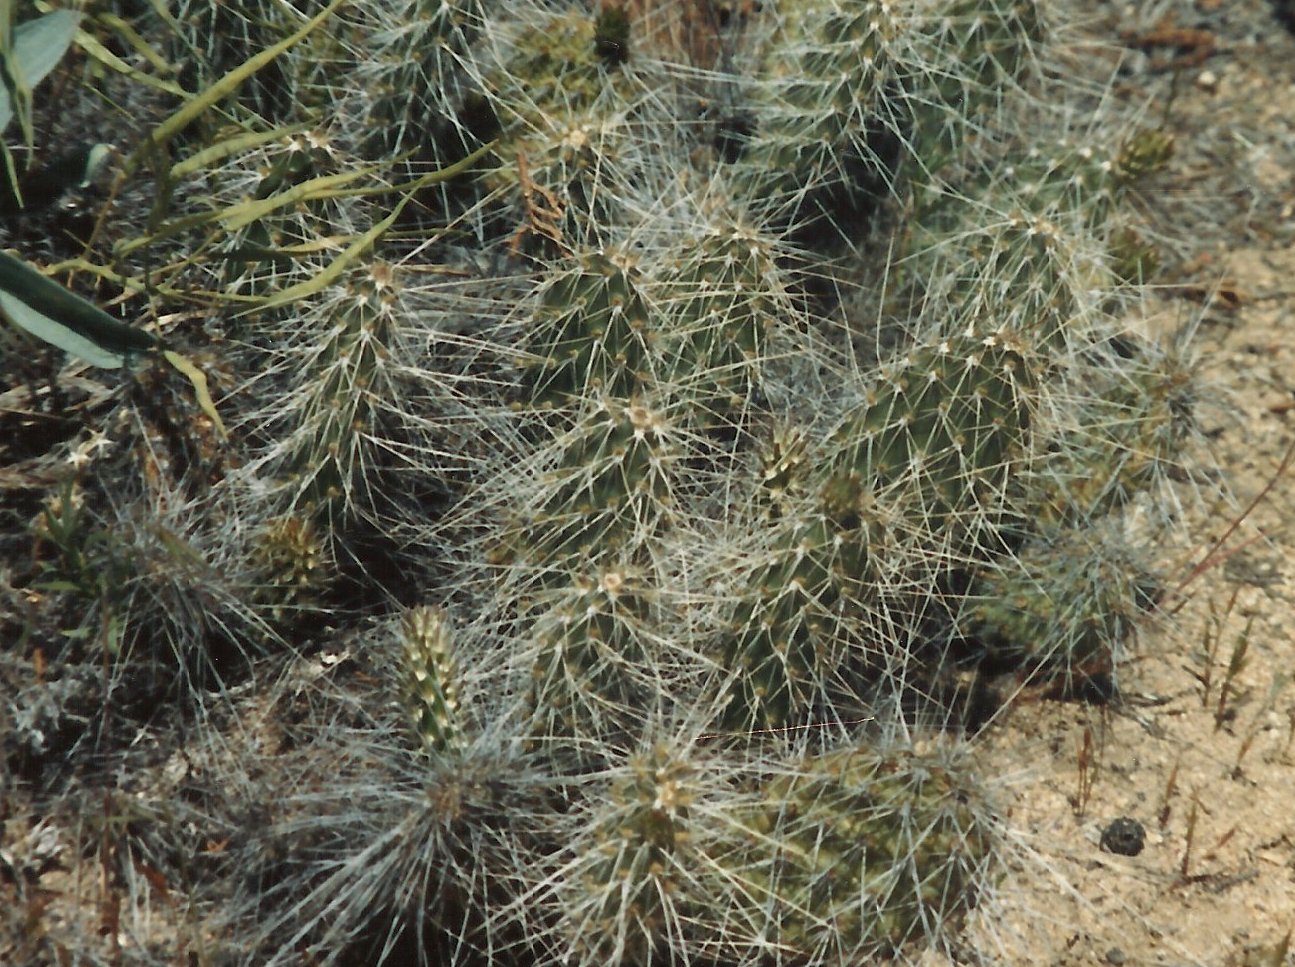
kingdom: Plantae
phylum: Tracheophyta
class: Magnoliopsida
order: Caryophyllales
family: Cactaceae
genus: Opuntia
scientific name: Opuntia polyacantha
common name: Plains prickly-pear
